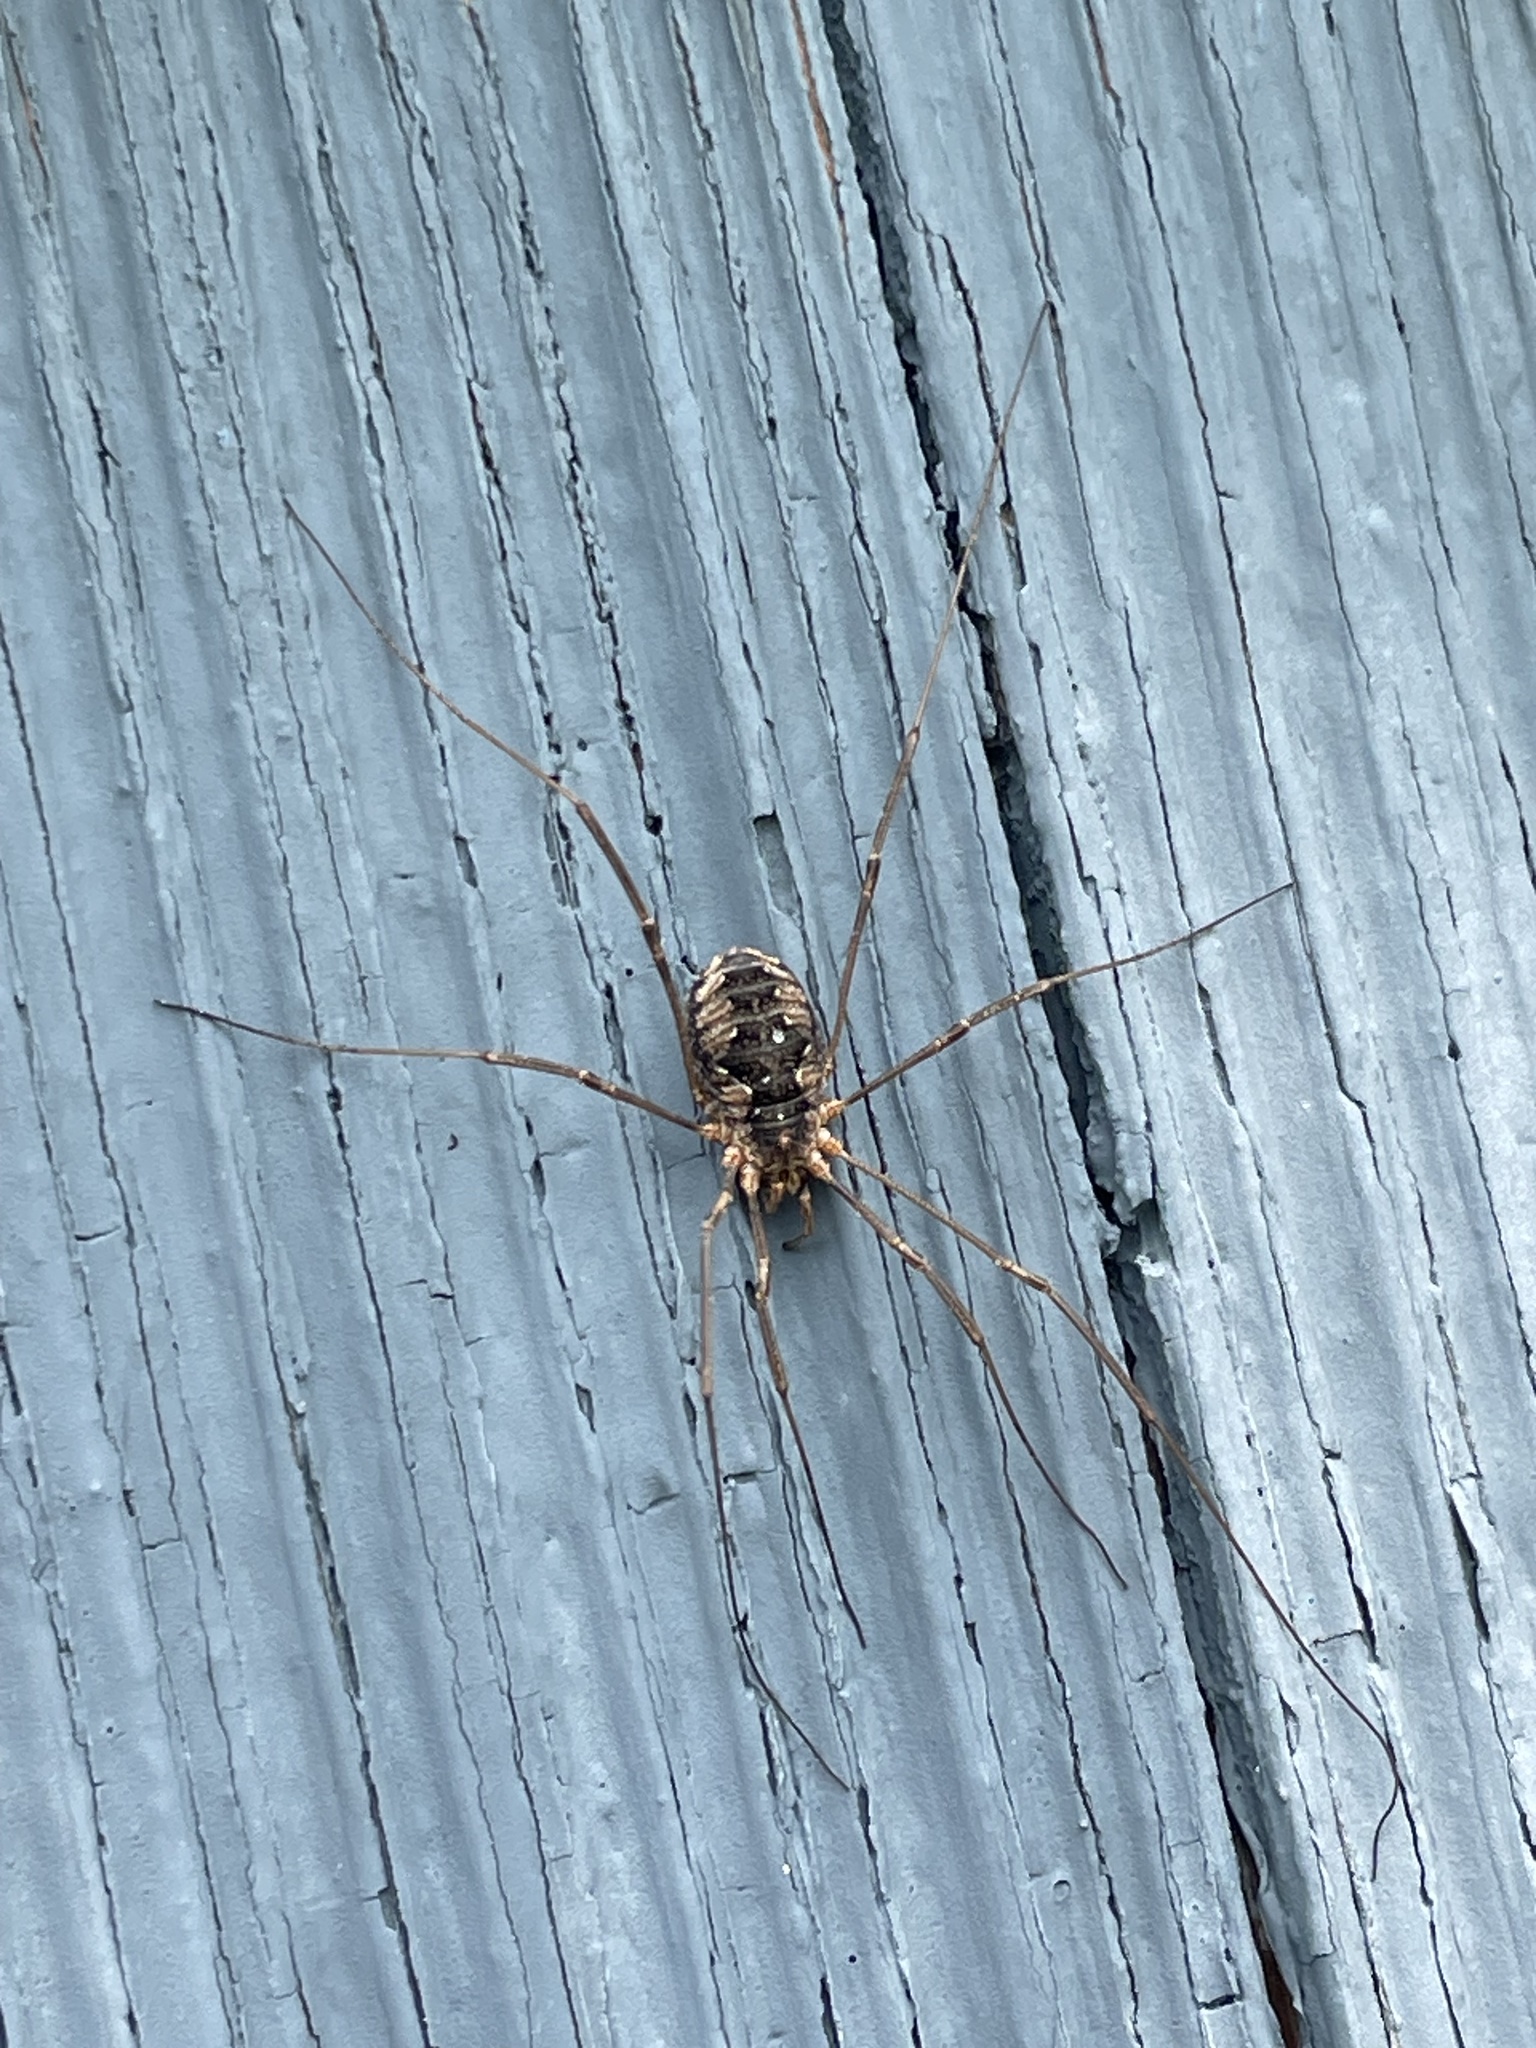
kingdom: Animalia
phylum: Arthropoda
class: Arachnida
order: Opiliones
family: Phalangiidae
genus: Phalangium
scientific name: Phalangium opilio
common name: Daddy longleg
